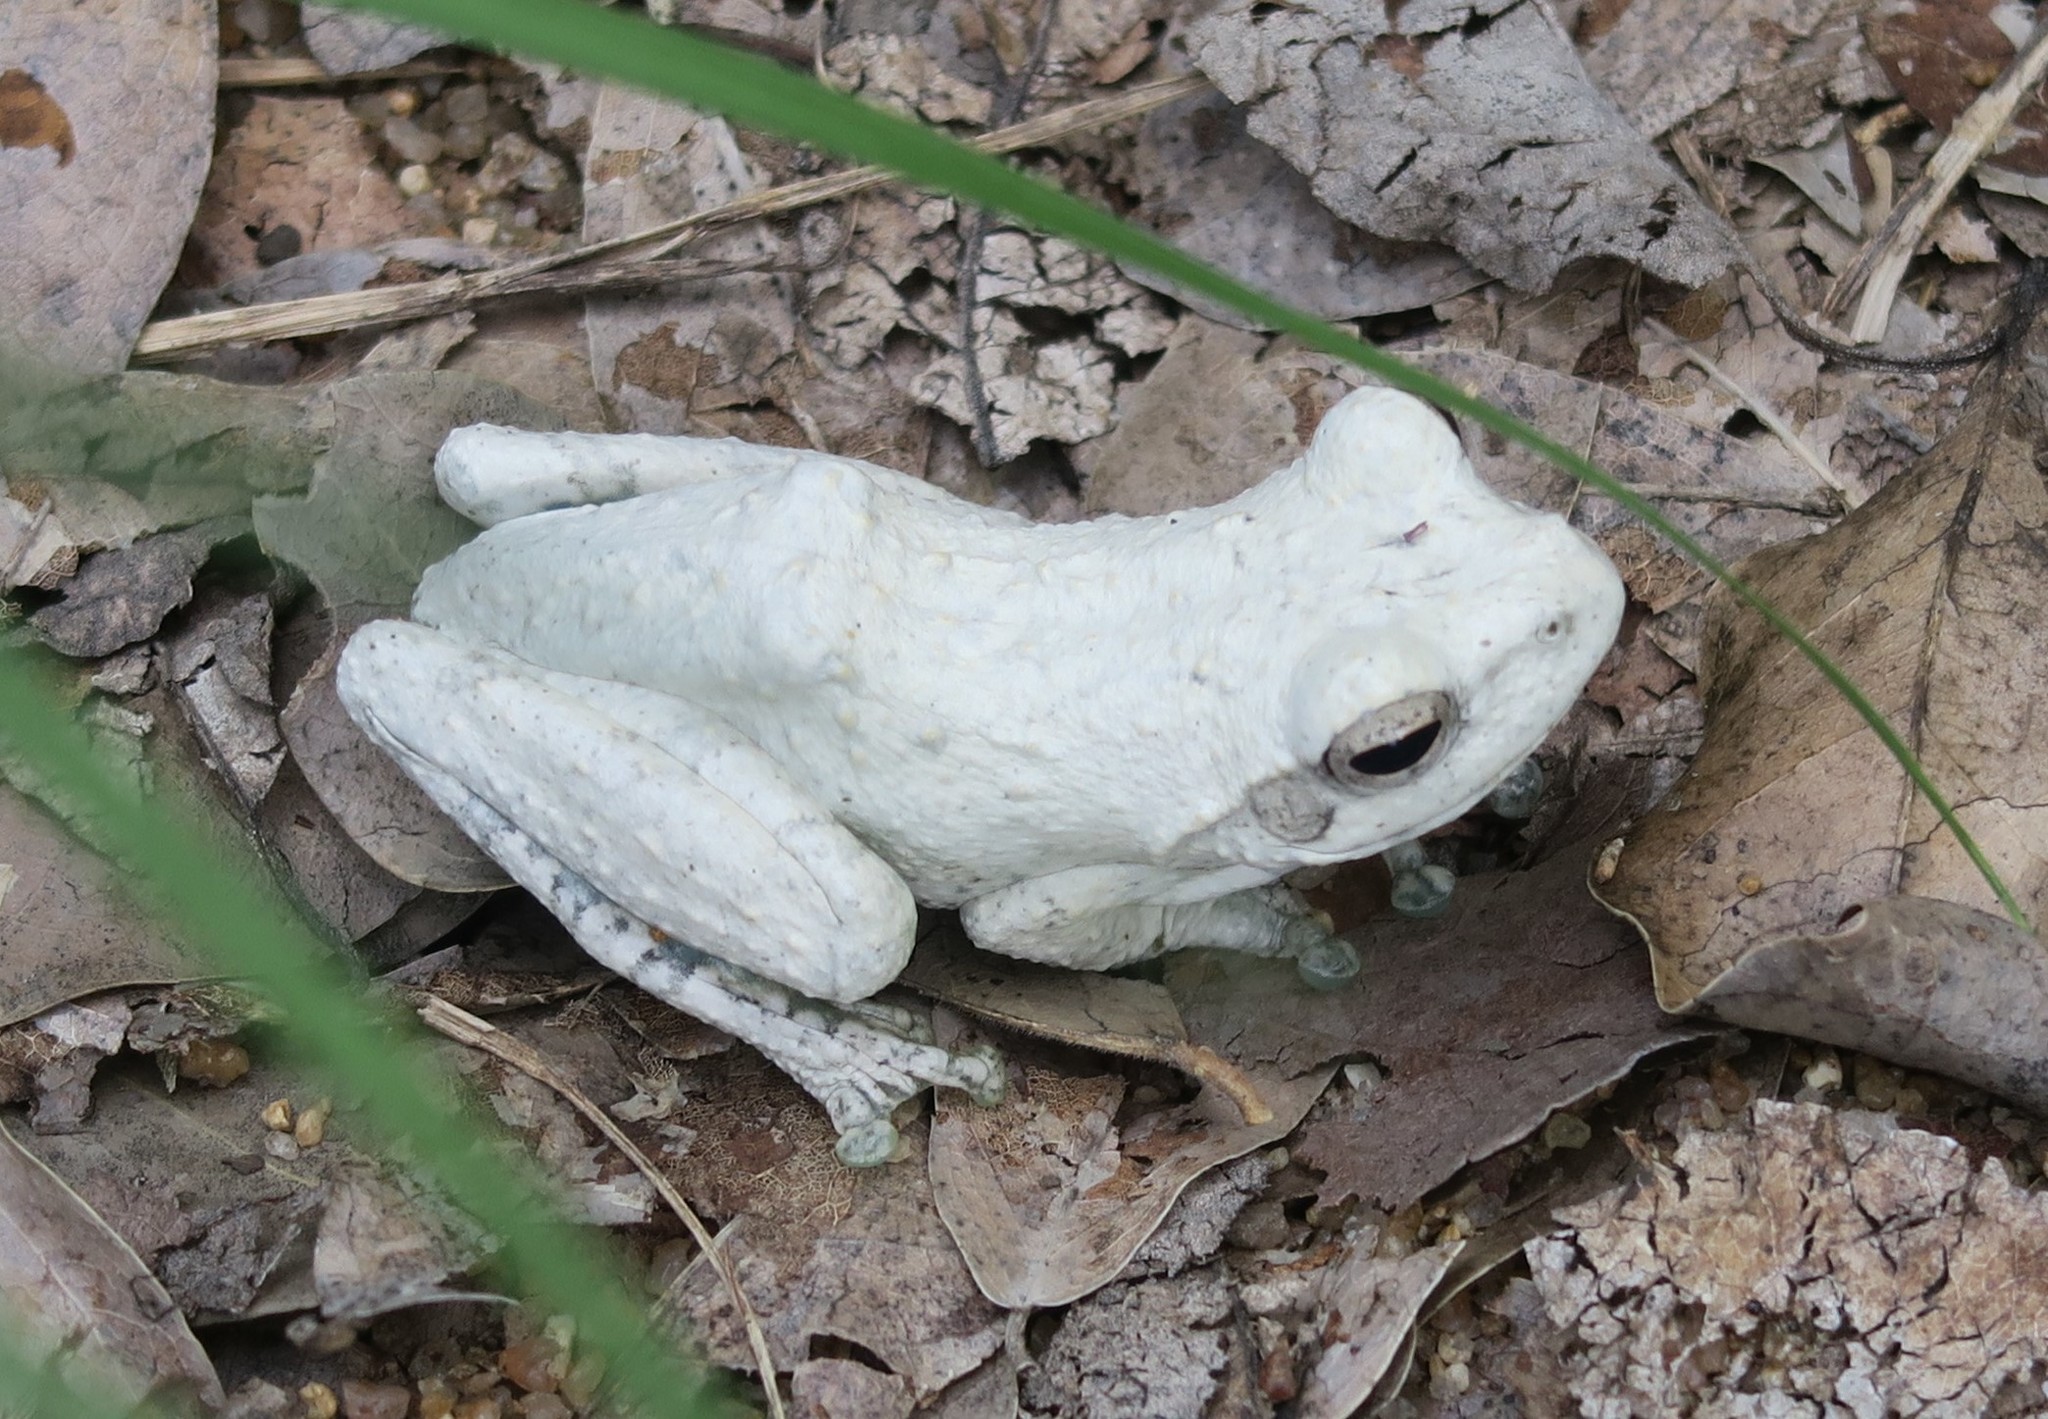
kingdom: Animalia
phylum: Chordata
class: Amphibia
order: Anura
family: Rhacophoridae
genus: Chiromantis
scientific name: Chiromantis xerampelina
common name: African gray treefrog
